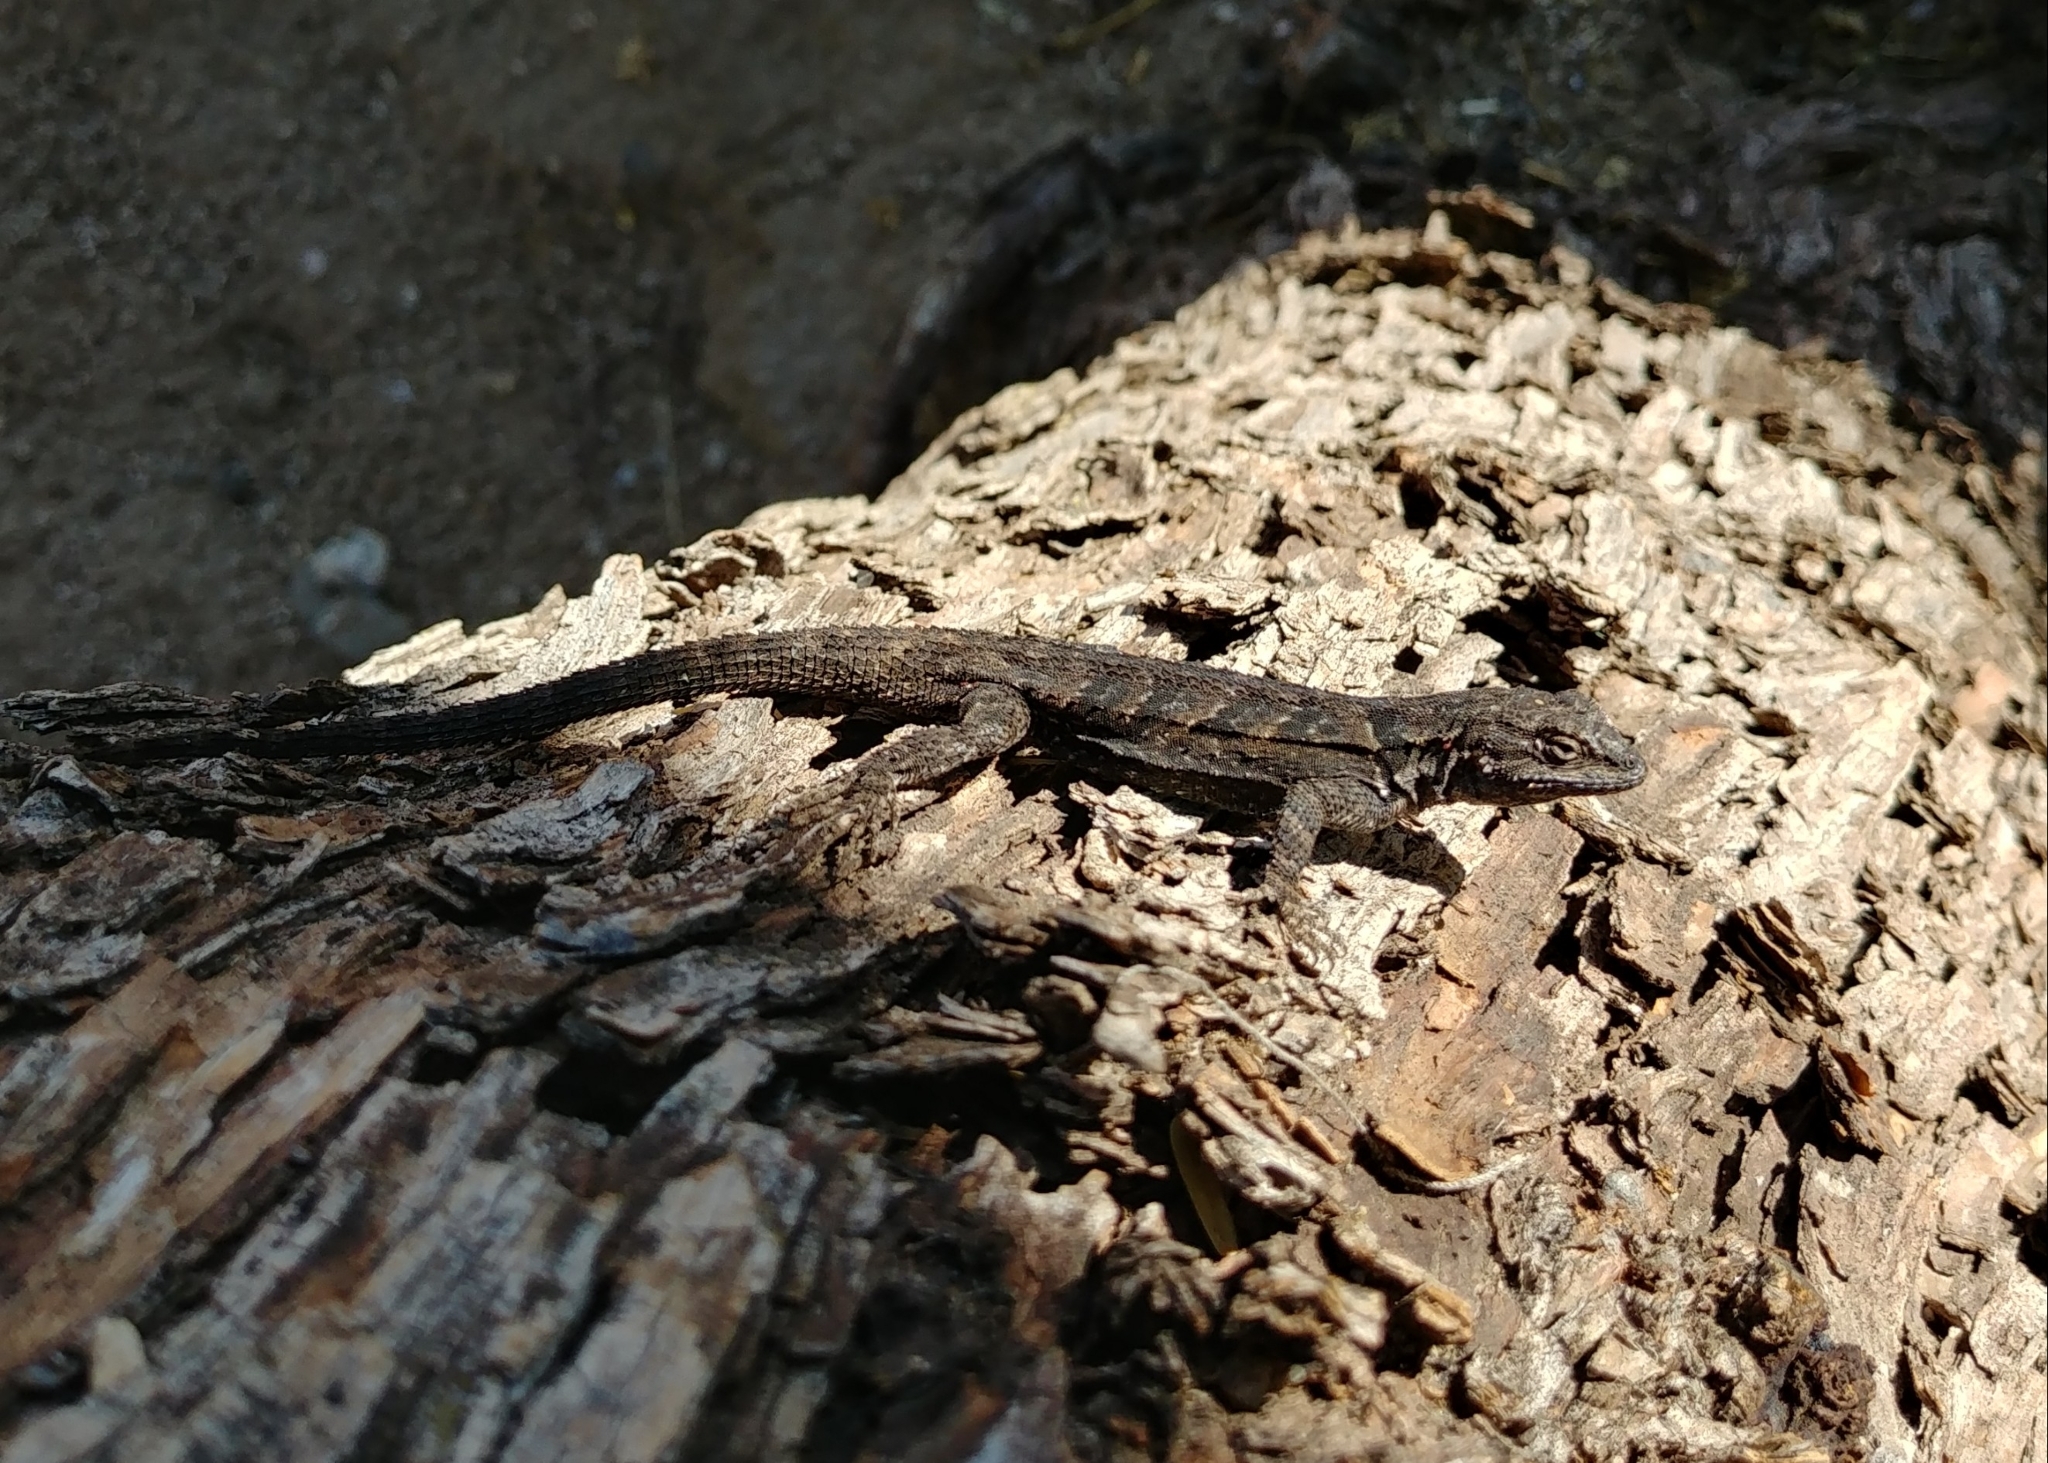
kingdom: Animalia
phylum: Chordata
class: Squamata
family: Phrynosomatidae
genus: Urosaurus
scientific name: Urosaurus ornatus
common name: Ornate tree lizard
